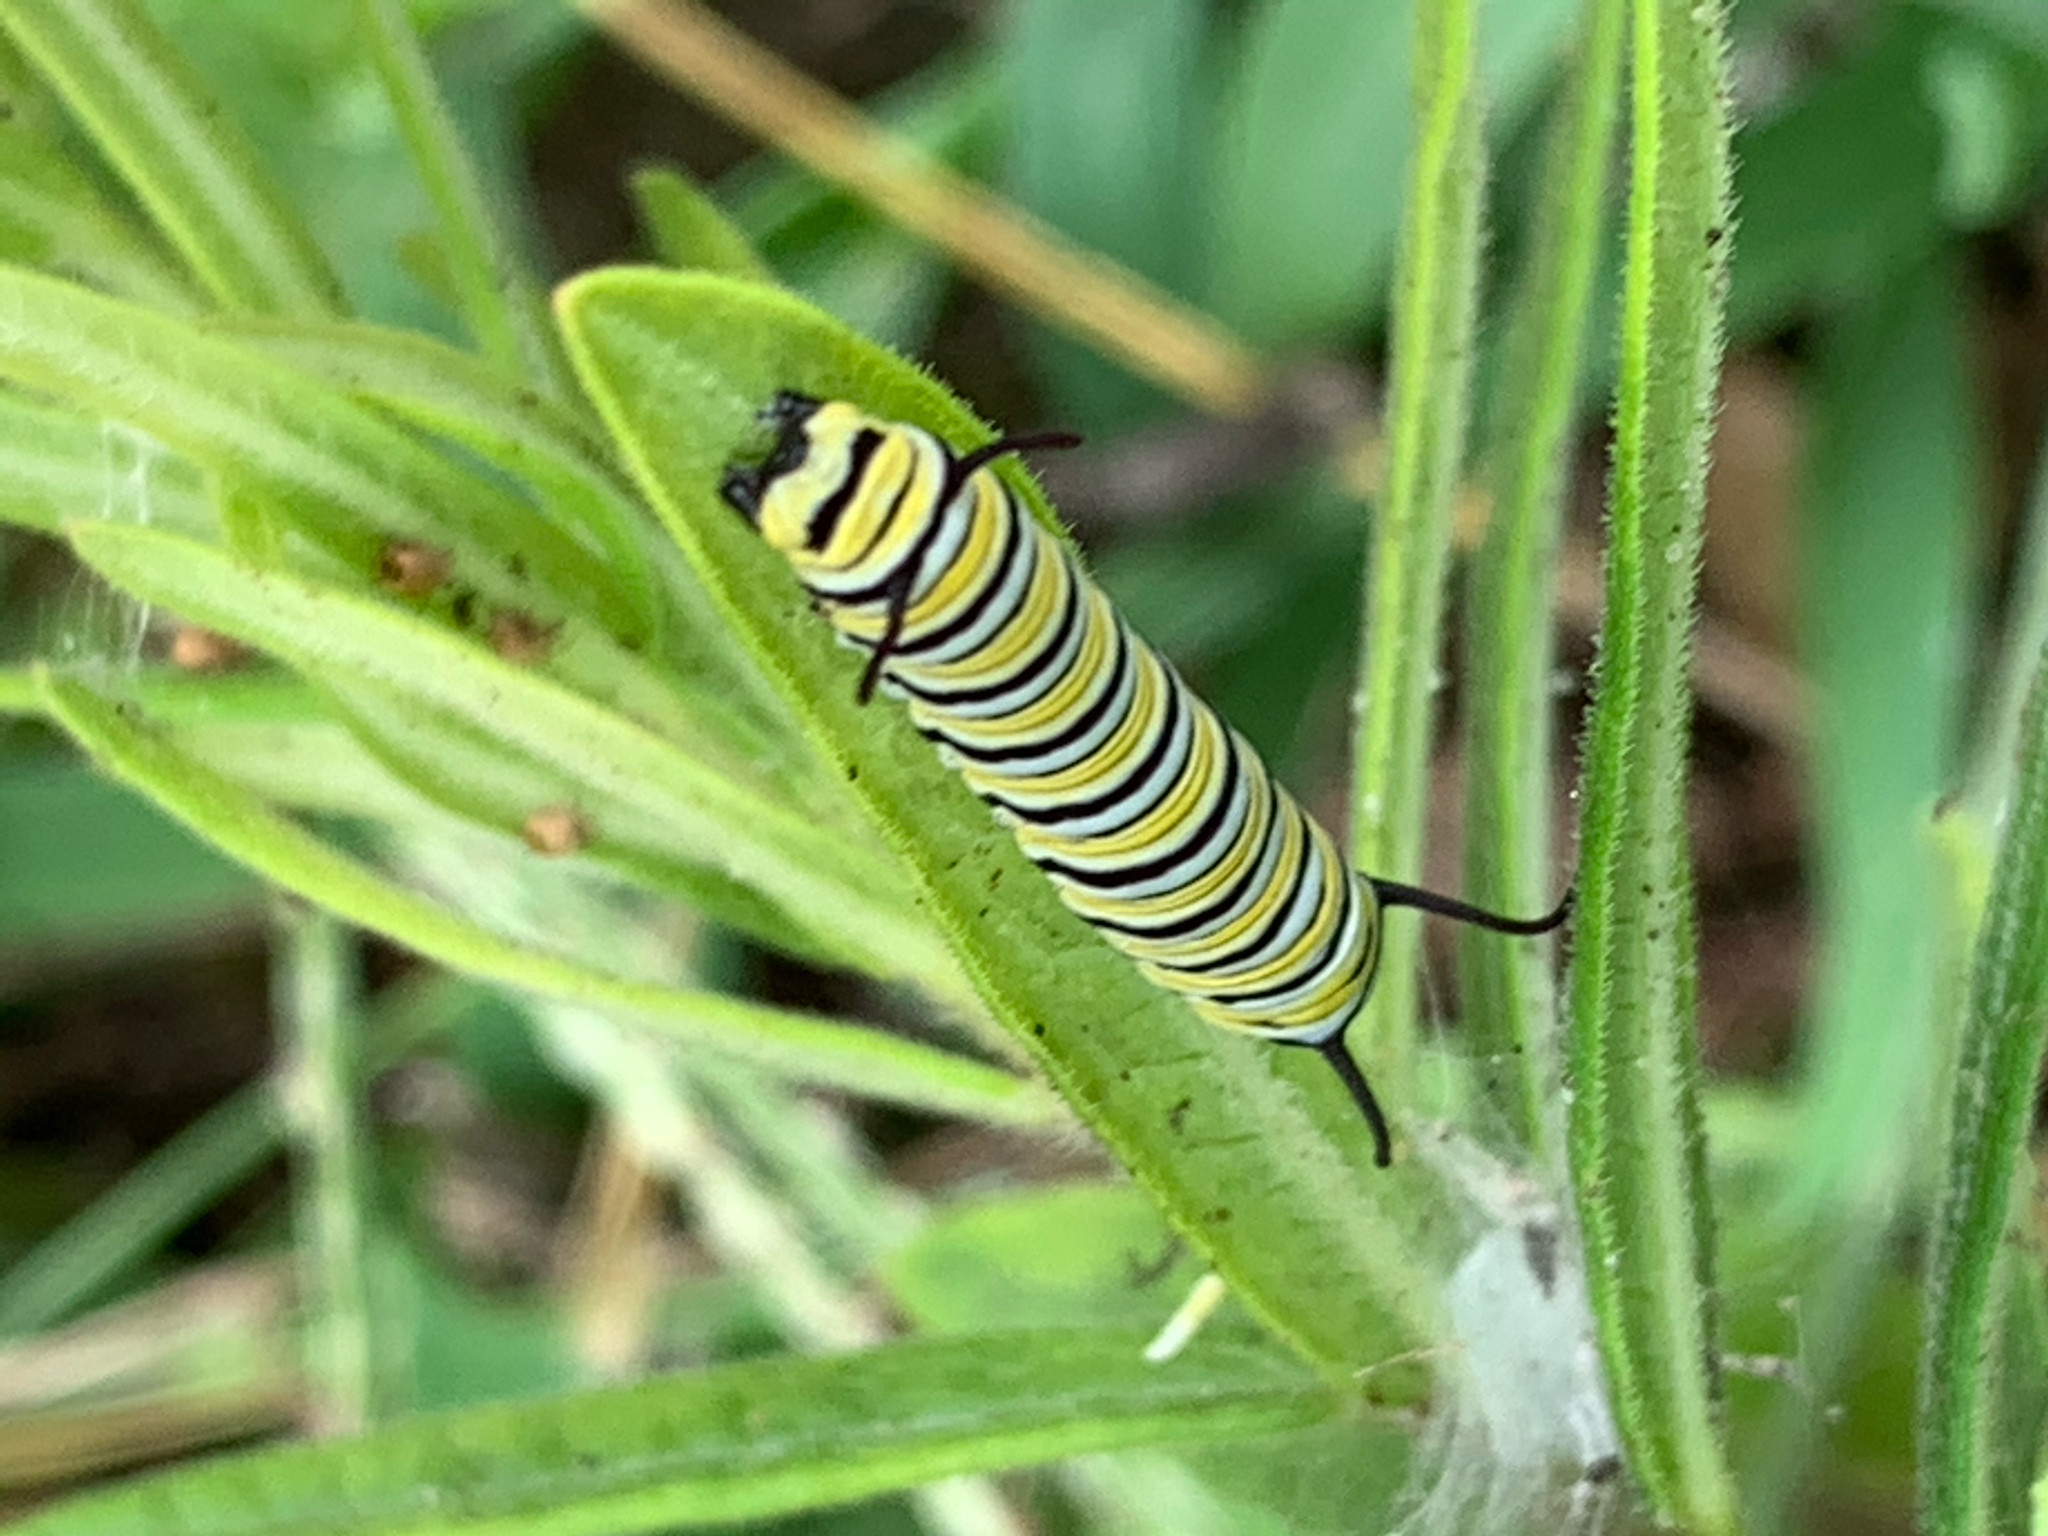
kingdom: Animalia
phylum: Arthropoda
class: Insecta
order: Lepidoptera
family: Nymphalidae
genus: Danaus
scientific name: Danaus plexippus
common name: Monarch
